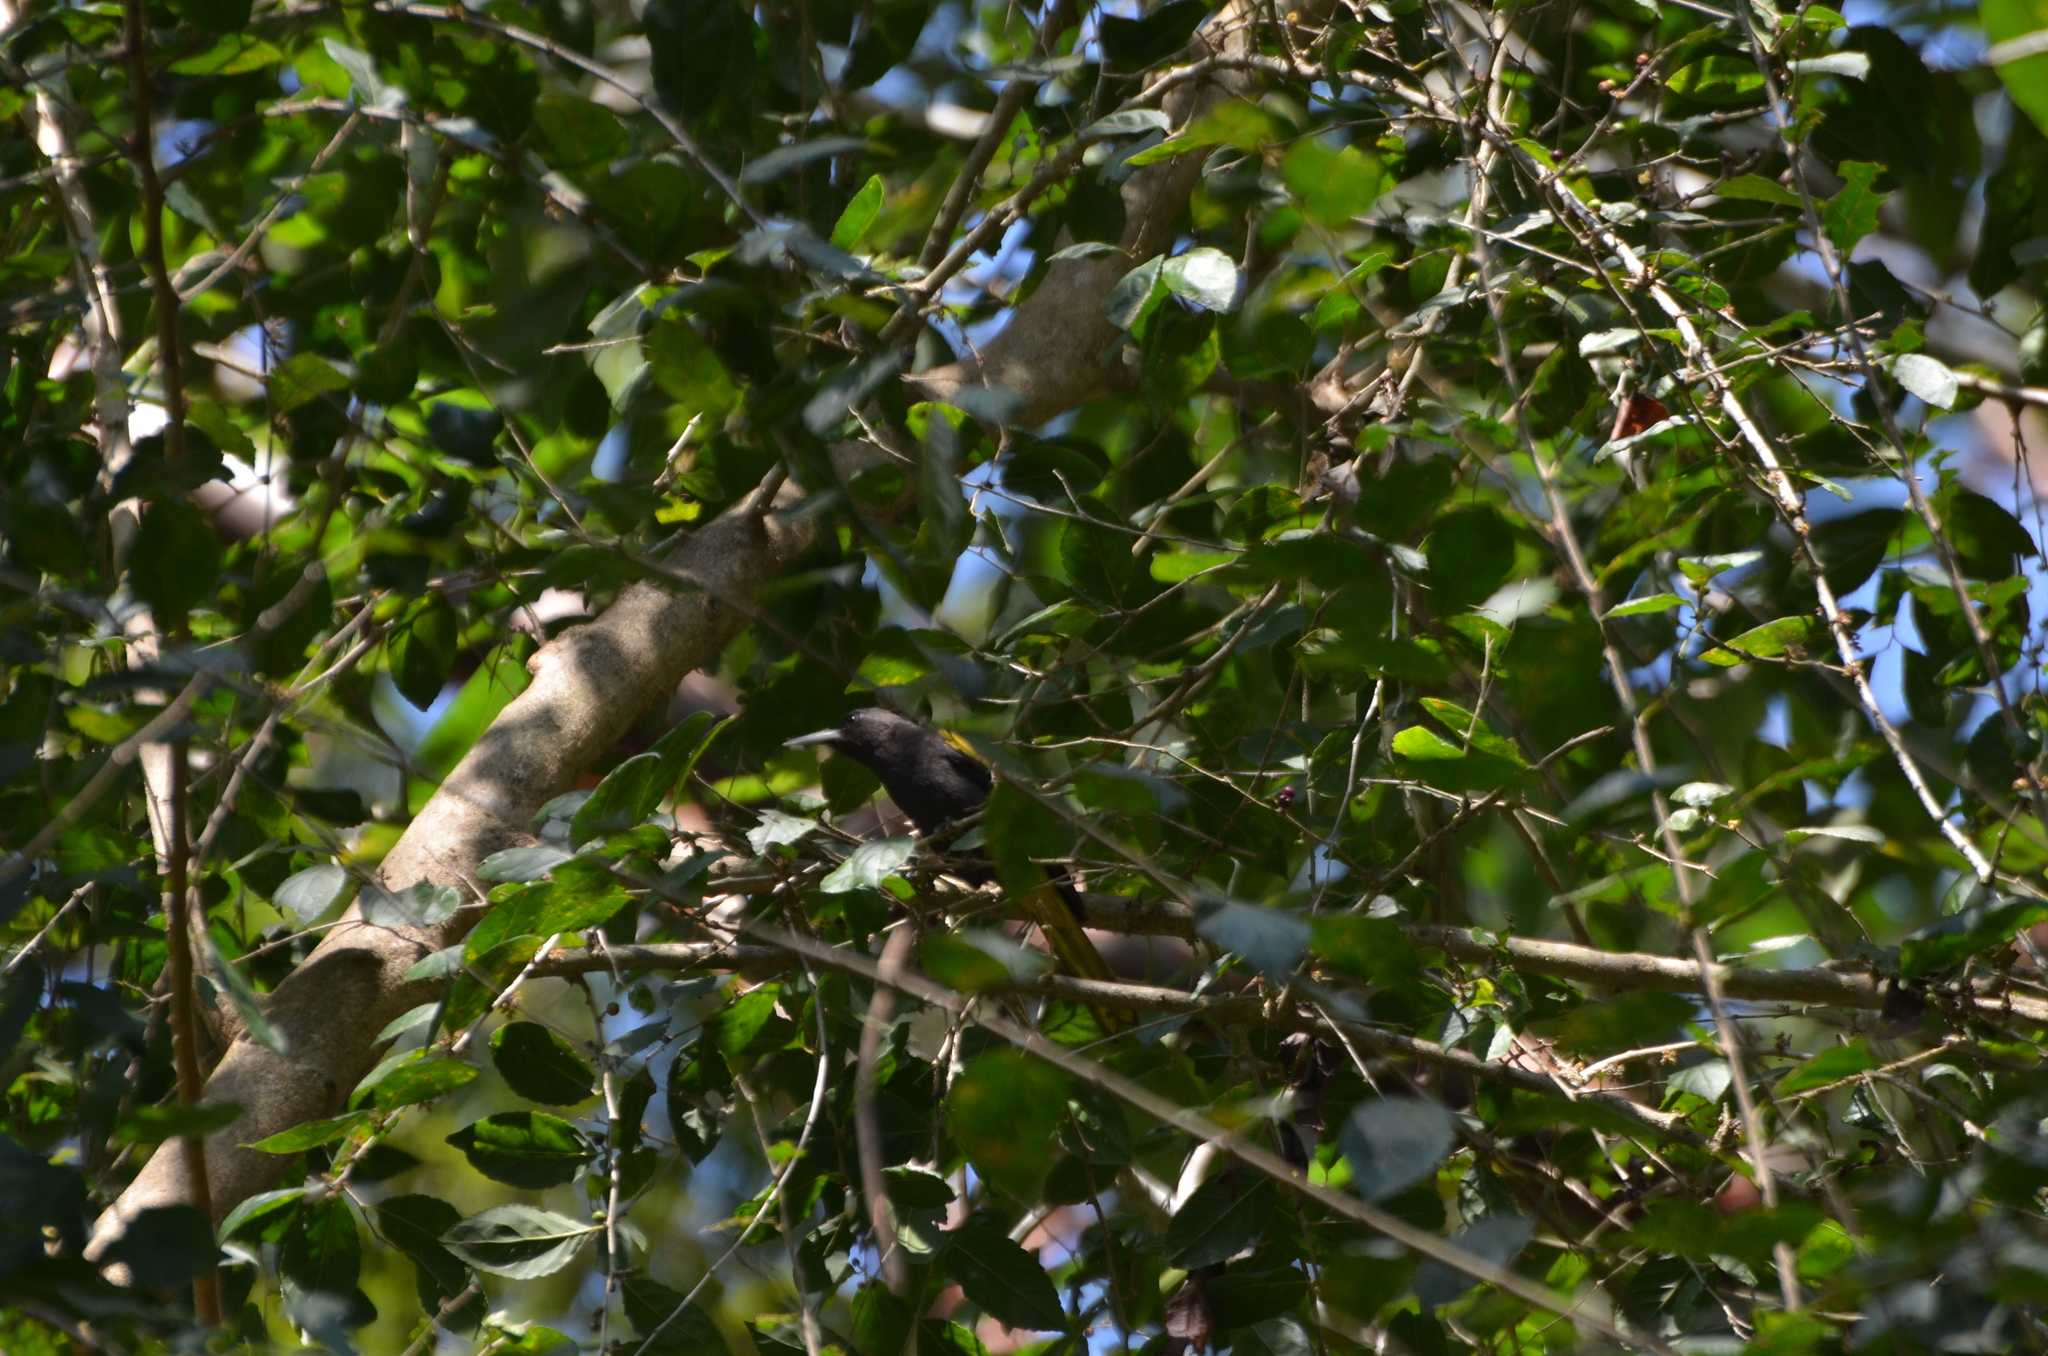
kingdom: Animalia
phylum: Chordata
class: Aves
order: Passeriformes
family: Icteridae
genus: Cacicus
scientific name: Cacicus melanicterus
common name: Yellow-winged cacique
